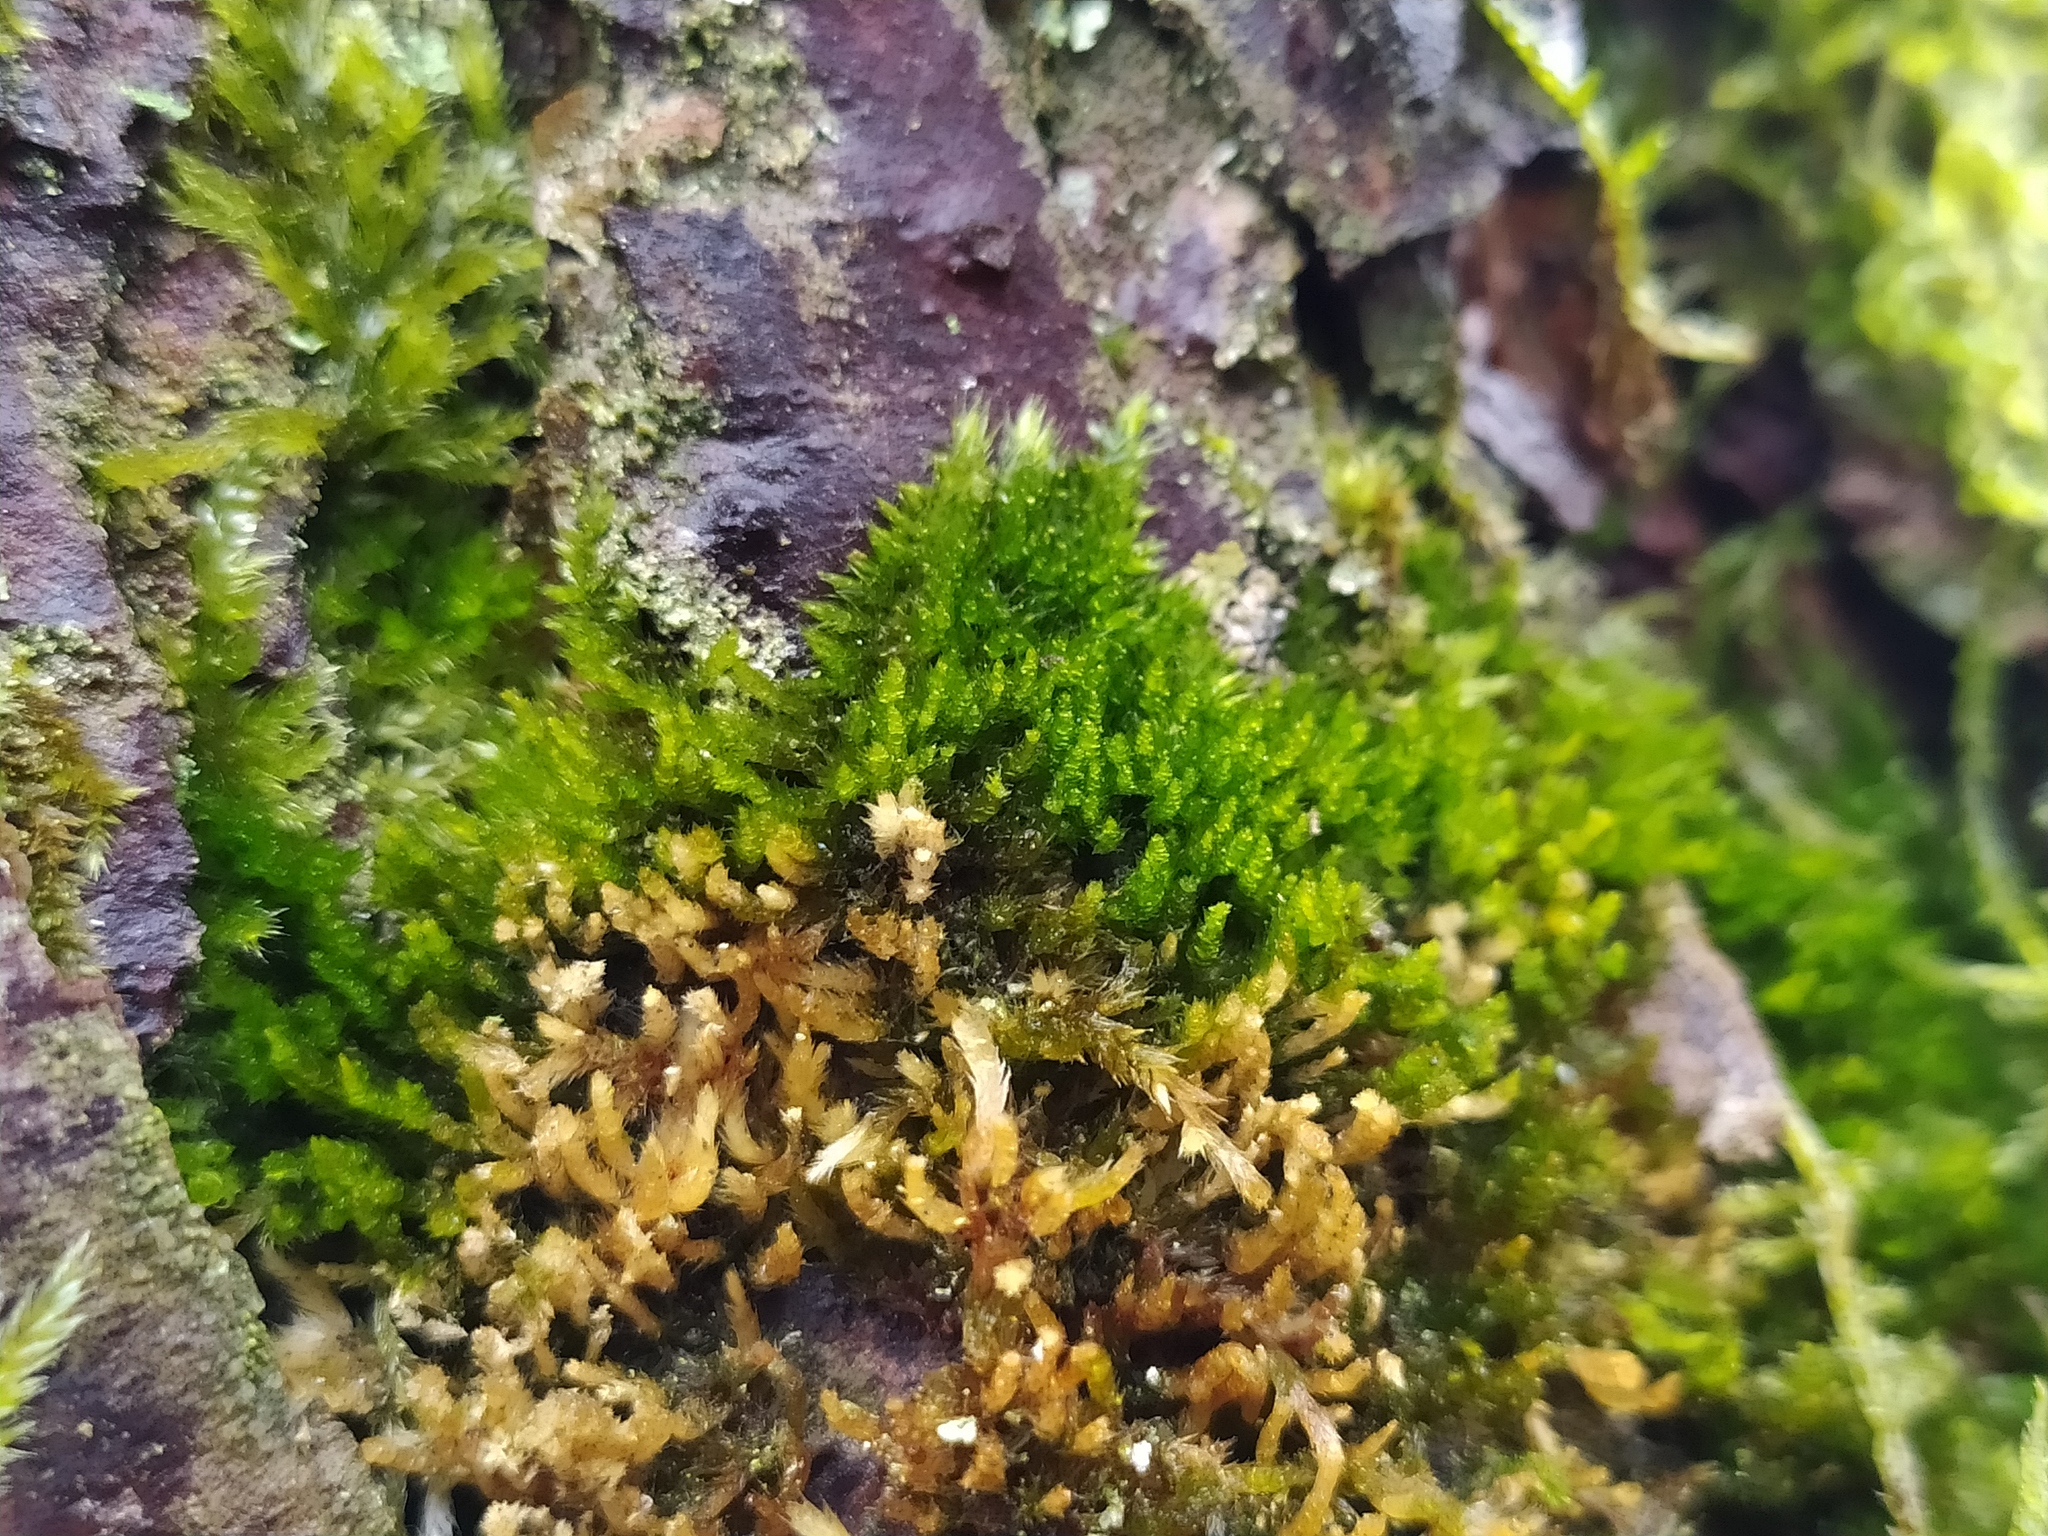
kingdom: Plantae
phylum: Bryophyta
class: Bryopsida
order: Hypnales
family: Pylaisiadelphaceae
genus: Platygyrium
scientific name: Platygyrium repens
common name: Flat-brocade moss
